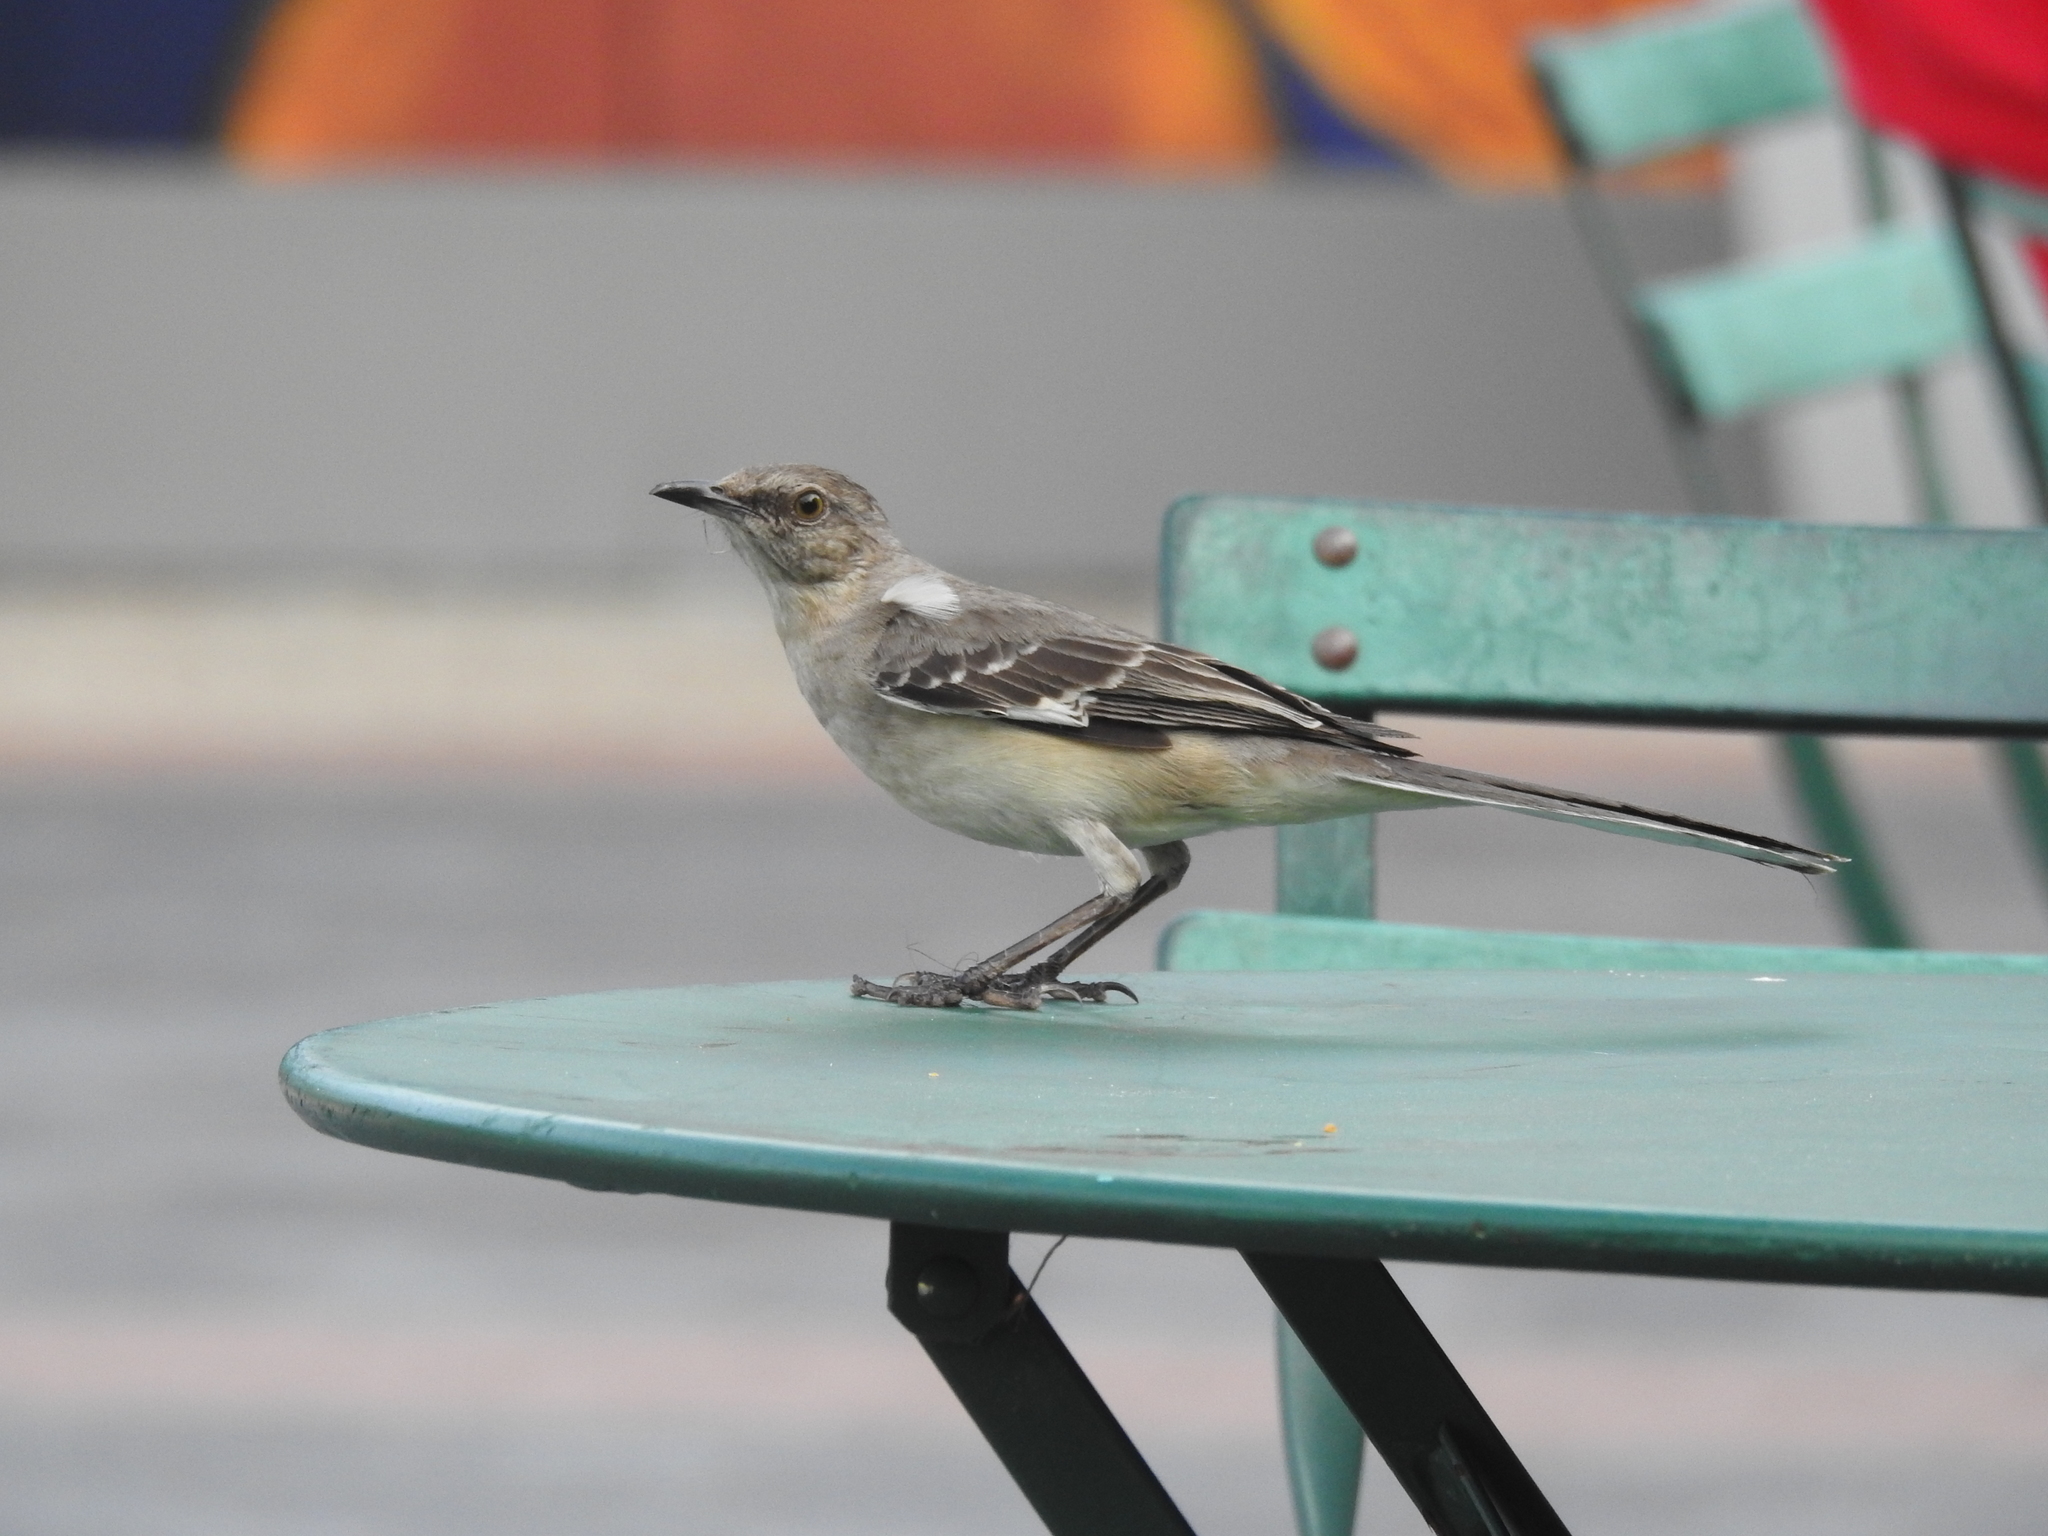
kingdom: Animalia
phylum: Chordata
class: Aves
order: Passeriformes
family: Mimidae
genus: Mimus
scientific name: Mimus polyglottos
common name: Northern mockingbird
